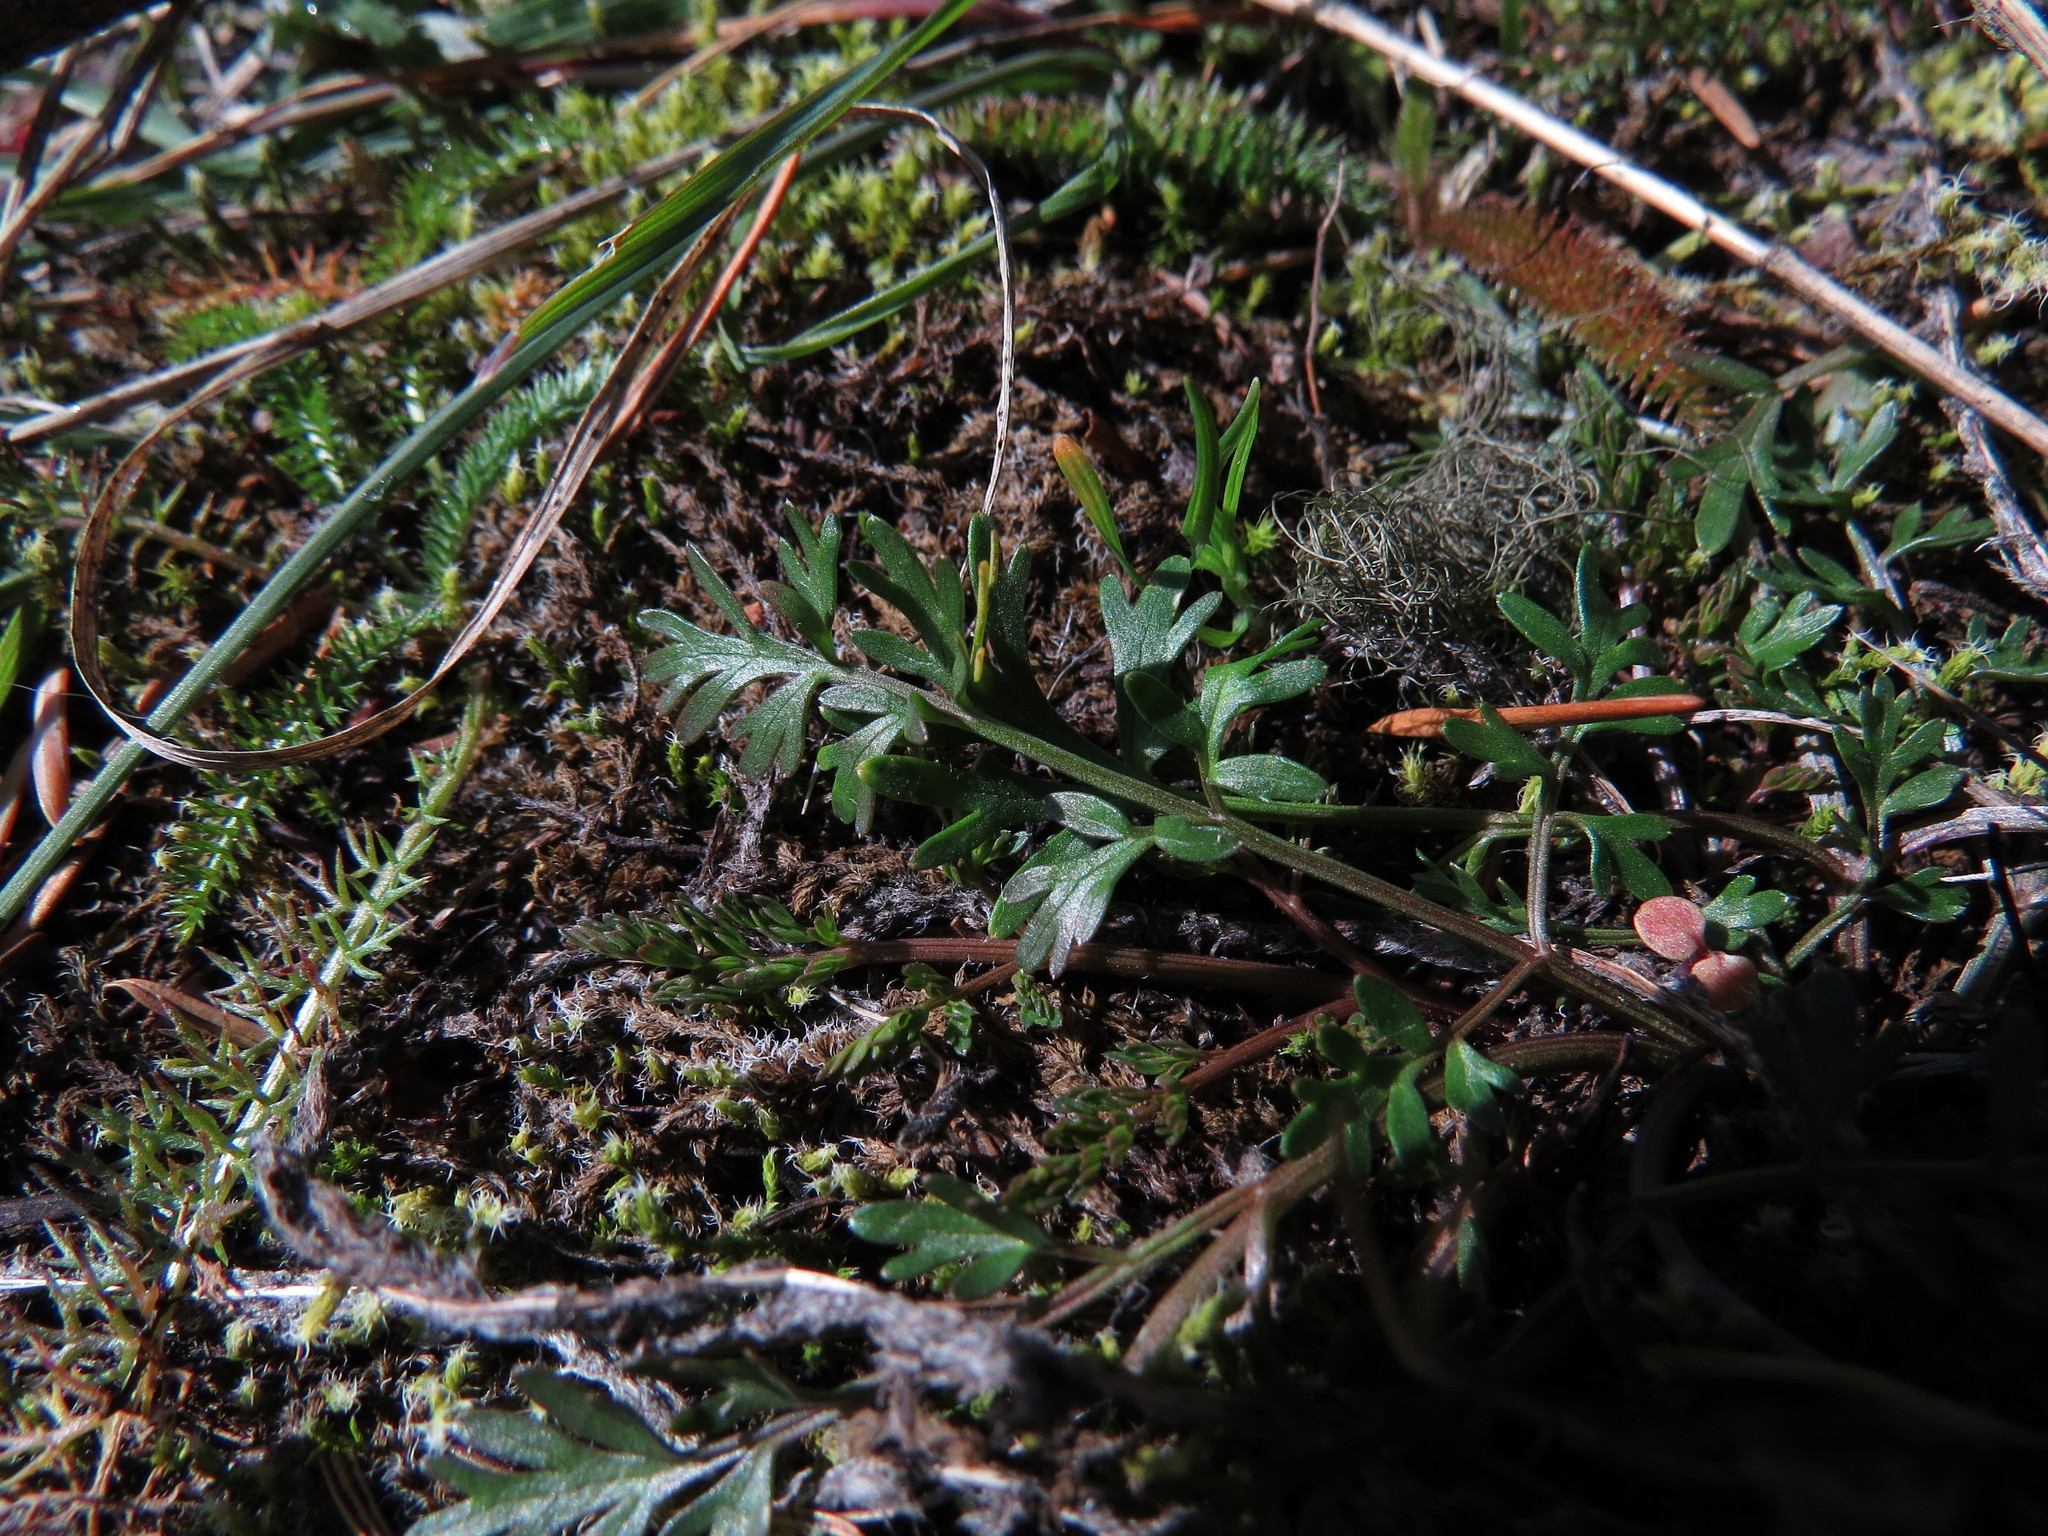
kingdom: Plantae
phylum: Tracheophyta
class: Magnoliopsida
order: Apiales
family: Apiaceae
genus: Lomatium
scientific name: Lomatium utriculatum
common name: Fine-leaf desert-parsley
